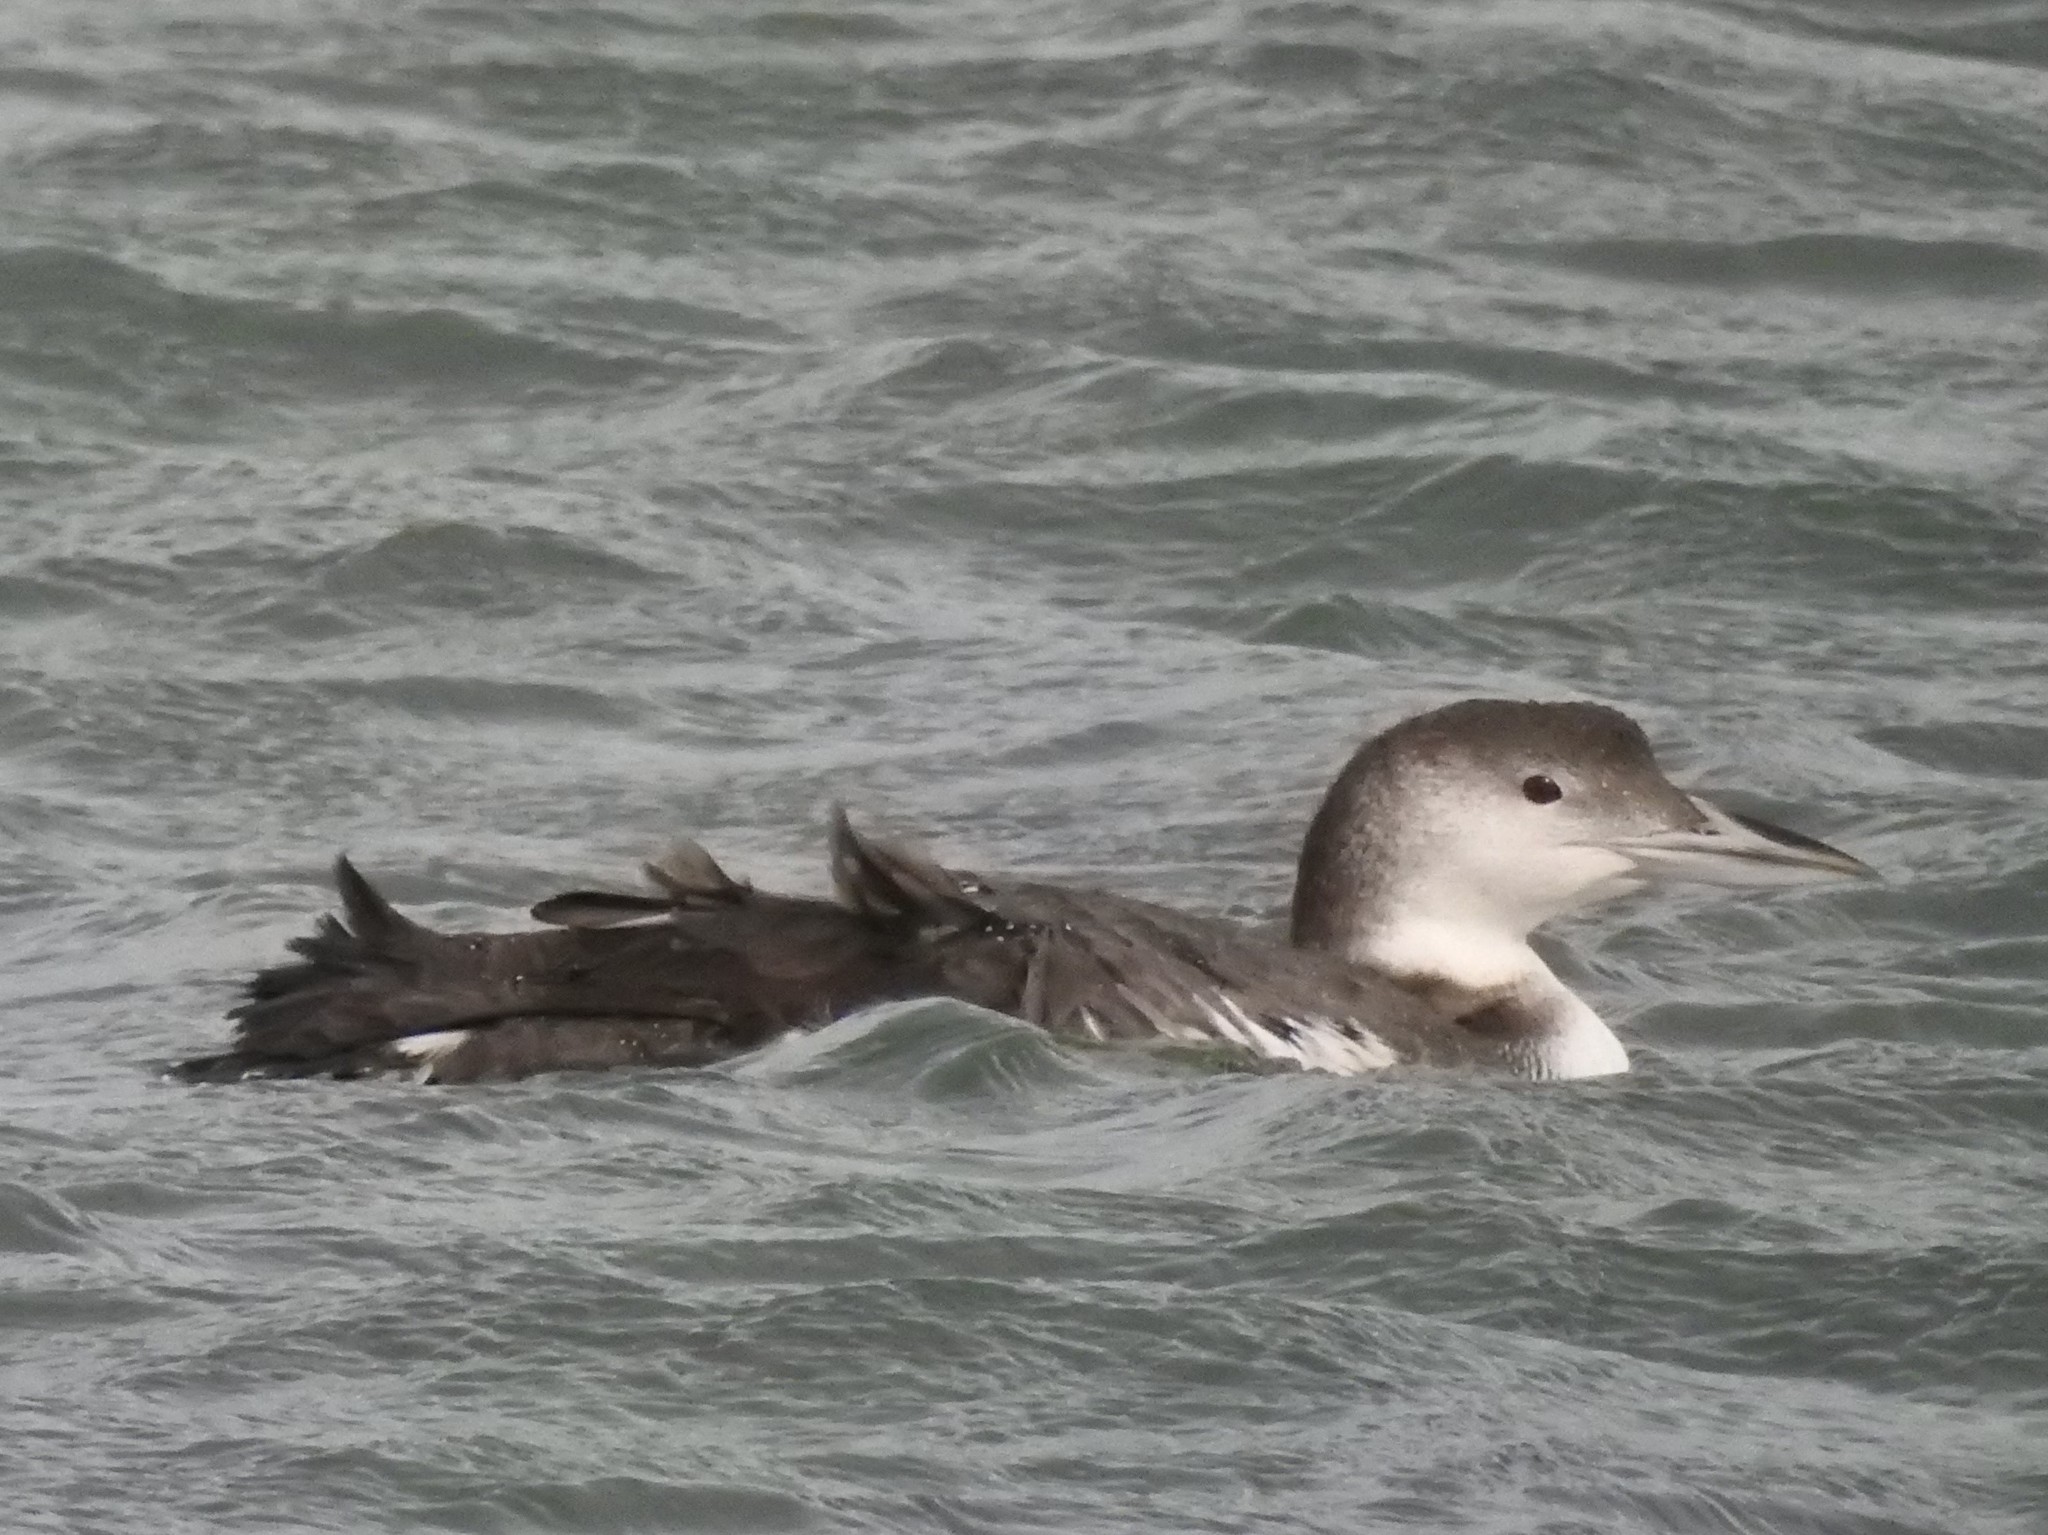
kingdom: Animalia
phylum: Chordata
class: Aves
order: Gaviiformes
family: Gaviidae
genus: Gavia
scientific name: Gavia immer
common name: Common loon
